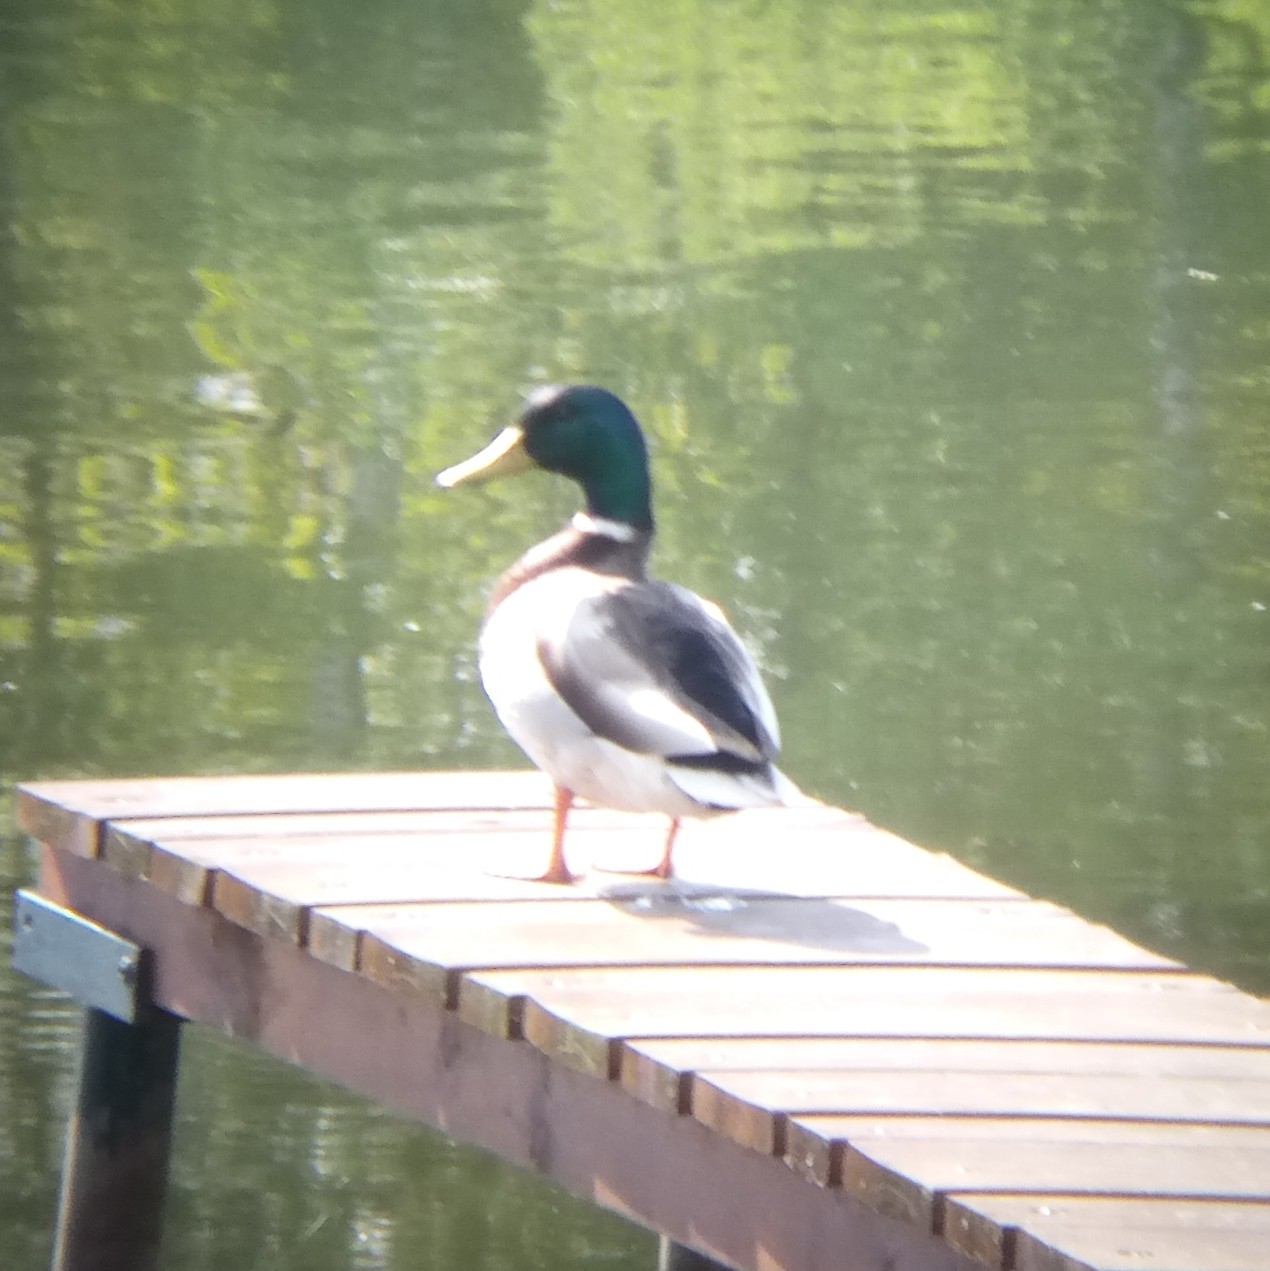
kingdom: Animalia
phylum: Chordata
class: Aves
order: Anseriformes
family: Anatidae
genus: Anas
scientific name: Anas platyrhynchos
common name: Mallard
